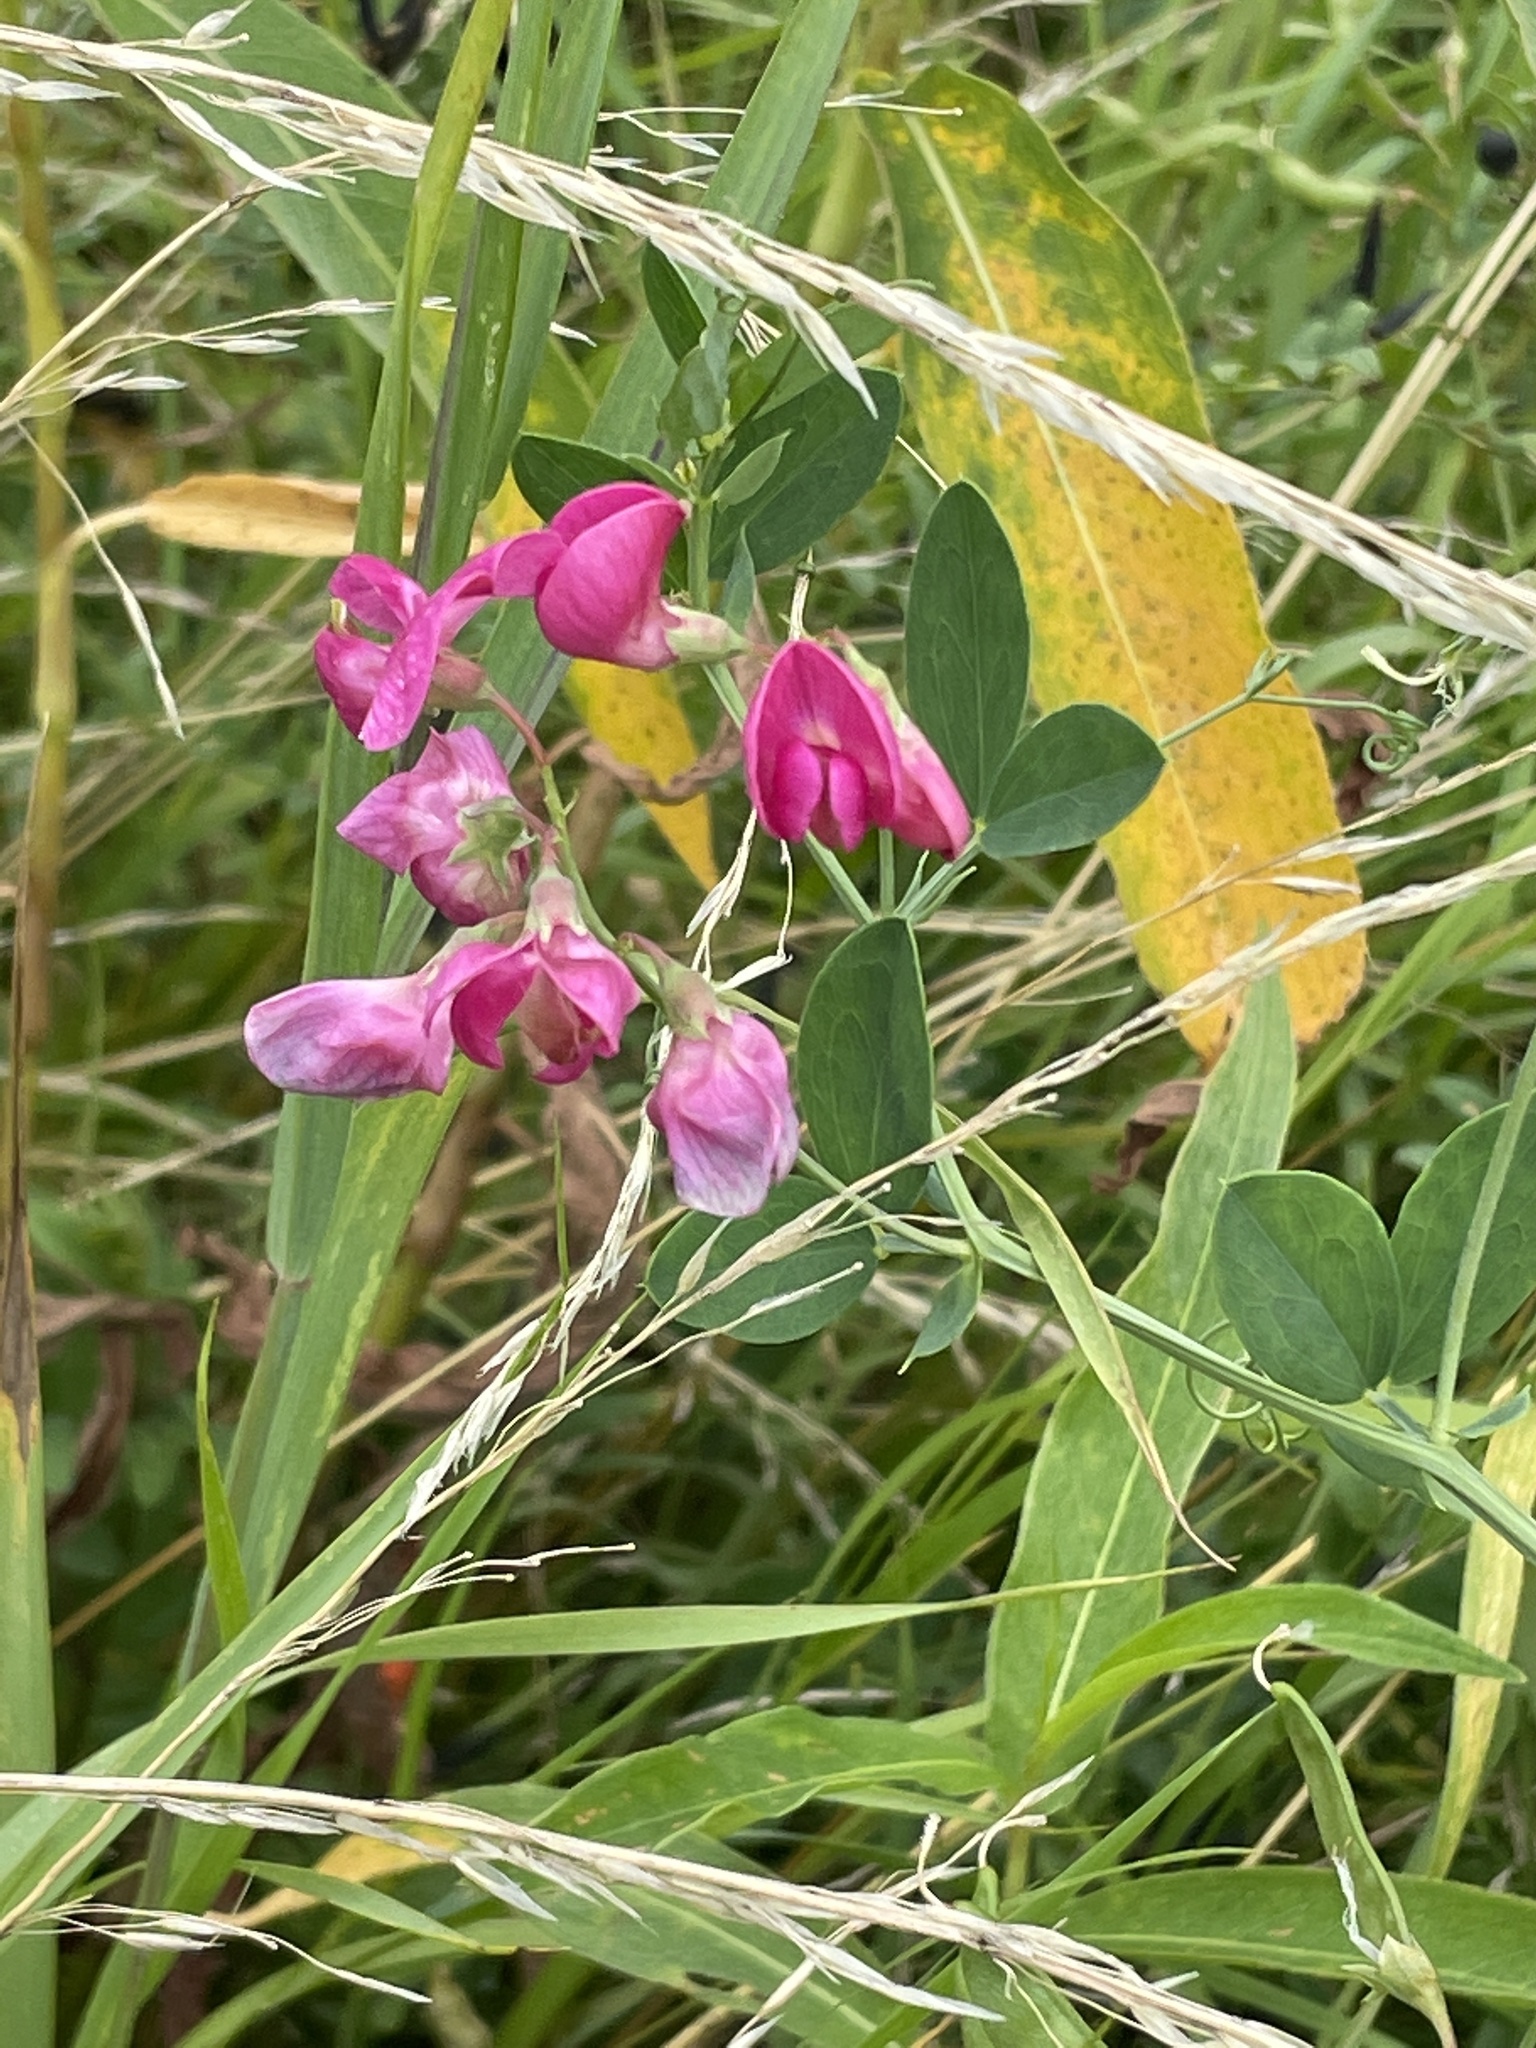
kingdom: Plantae
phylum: Tracheophyta
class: Magnoliopsida
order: Fabales
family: Fabaceae
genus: Lathyrus
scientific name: Lathyrus tuberosus
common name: Tuberous pea
